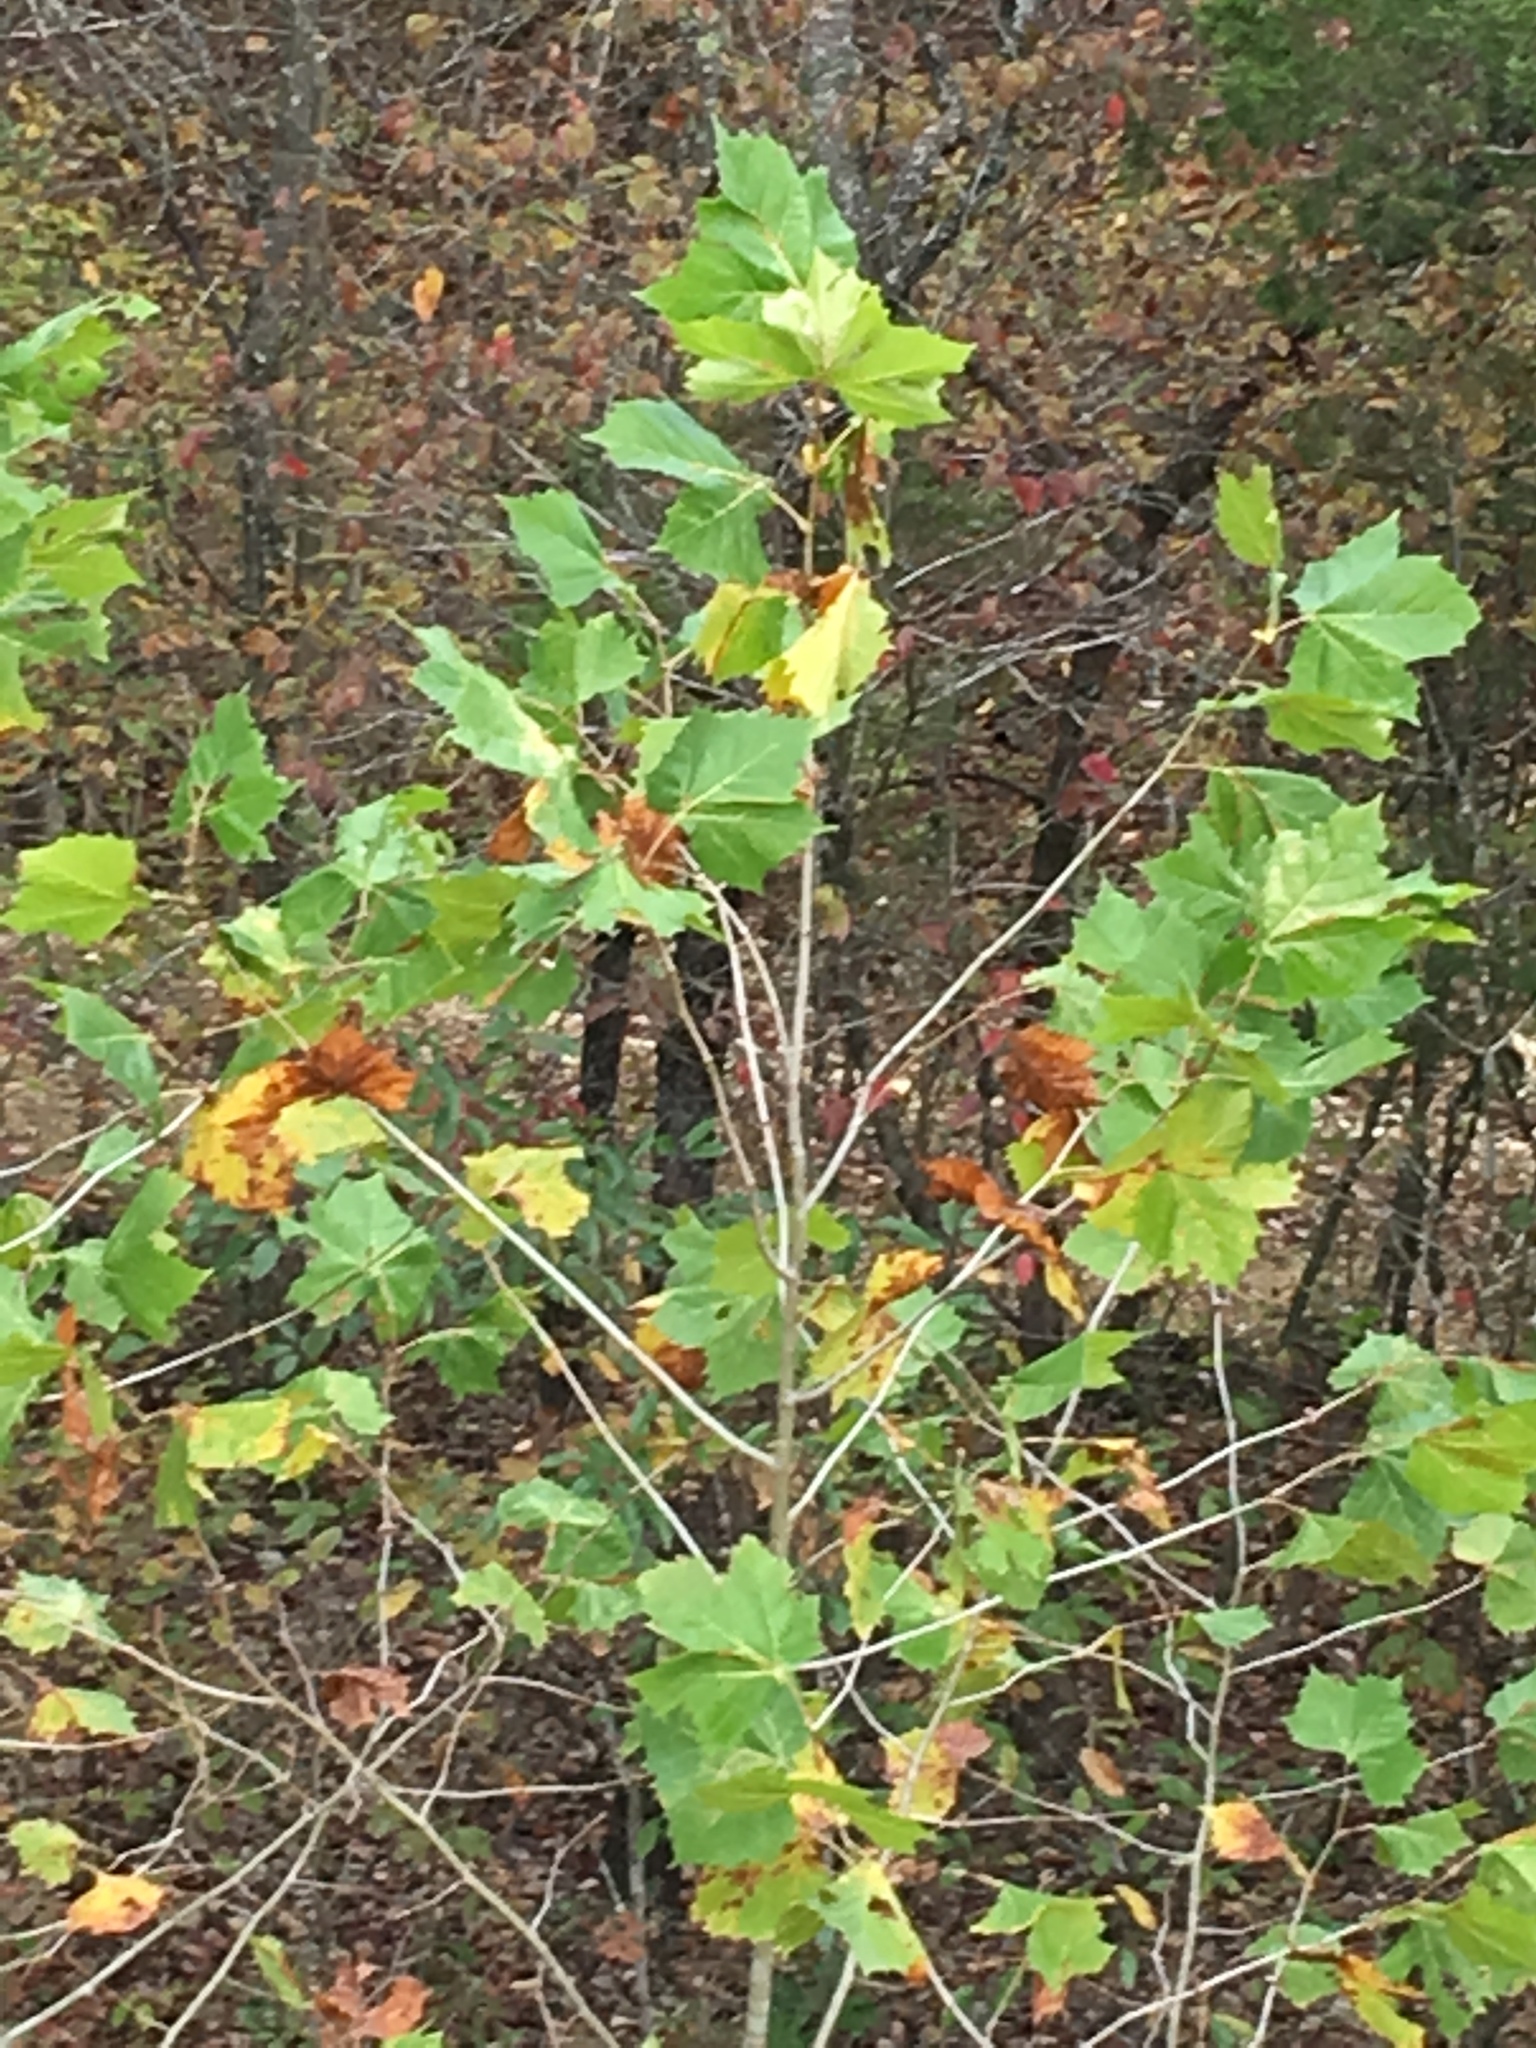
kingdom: Plantae
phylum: Tracheophyta
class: Magnoliopsida
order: Proteales
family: Platanaceae
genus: Platanus
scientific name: Platanus occidentalis
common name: American sycamore
